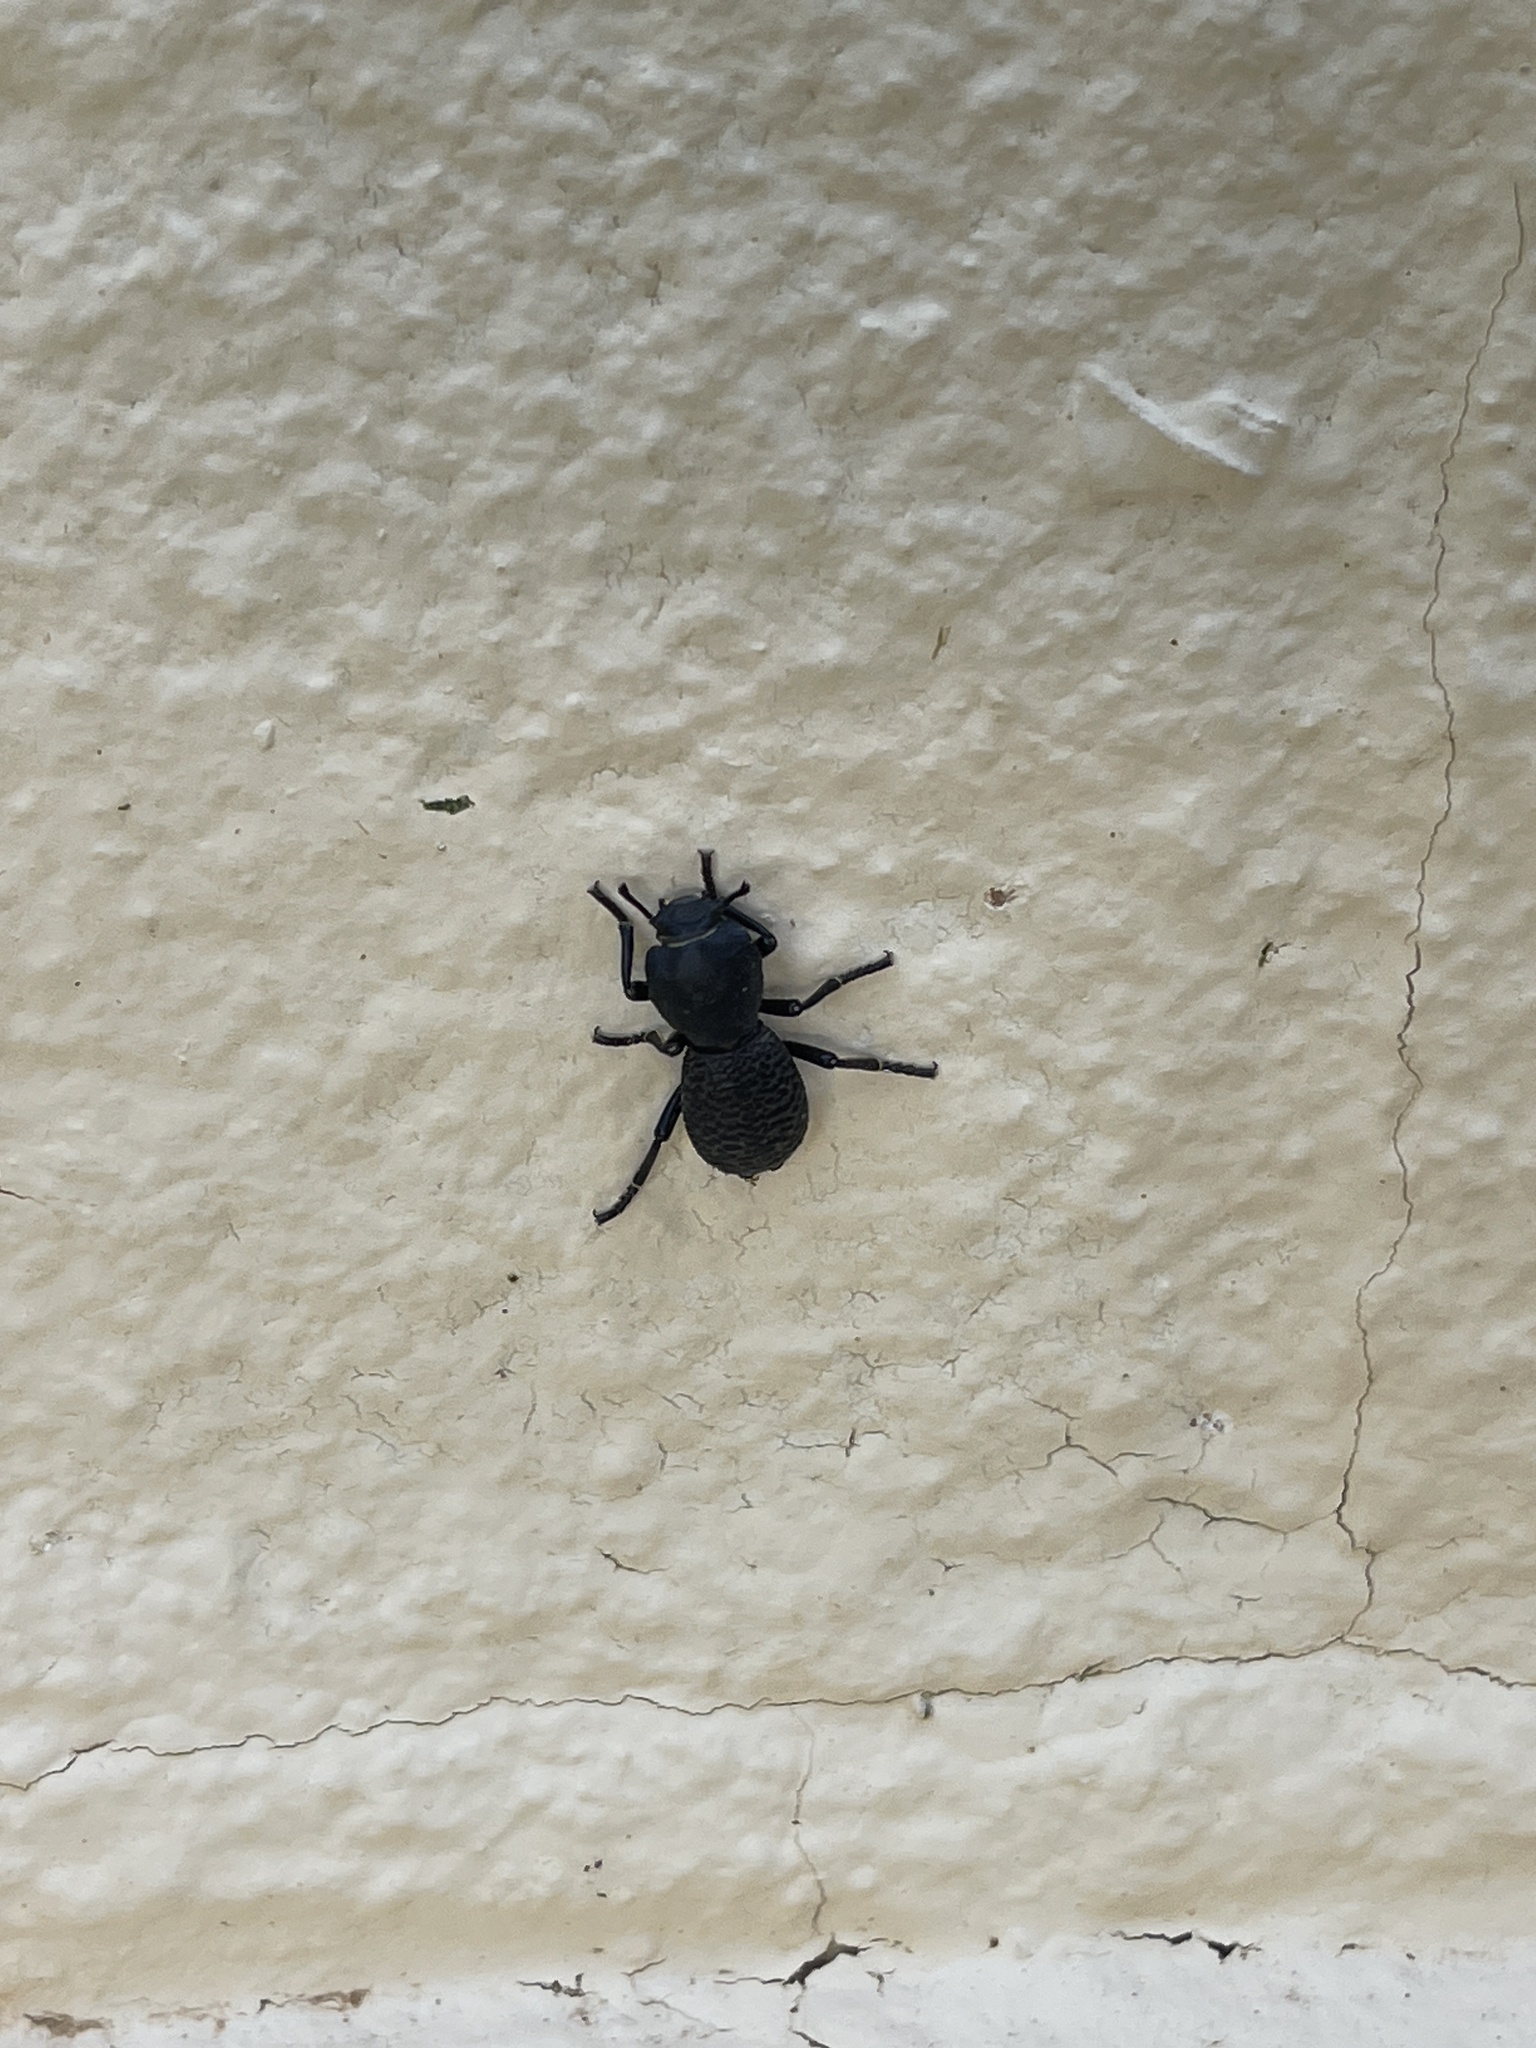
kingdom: Animalia
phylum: Arthropoda
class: Insecta
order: Coleoptera
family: Zopheridae
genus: Zopherus
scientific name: Zopherus concolor
